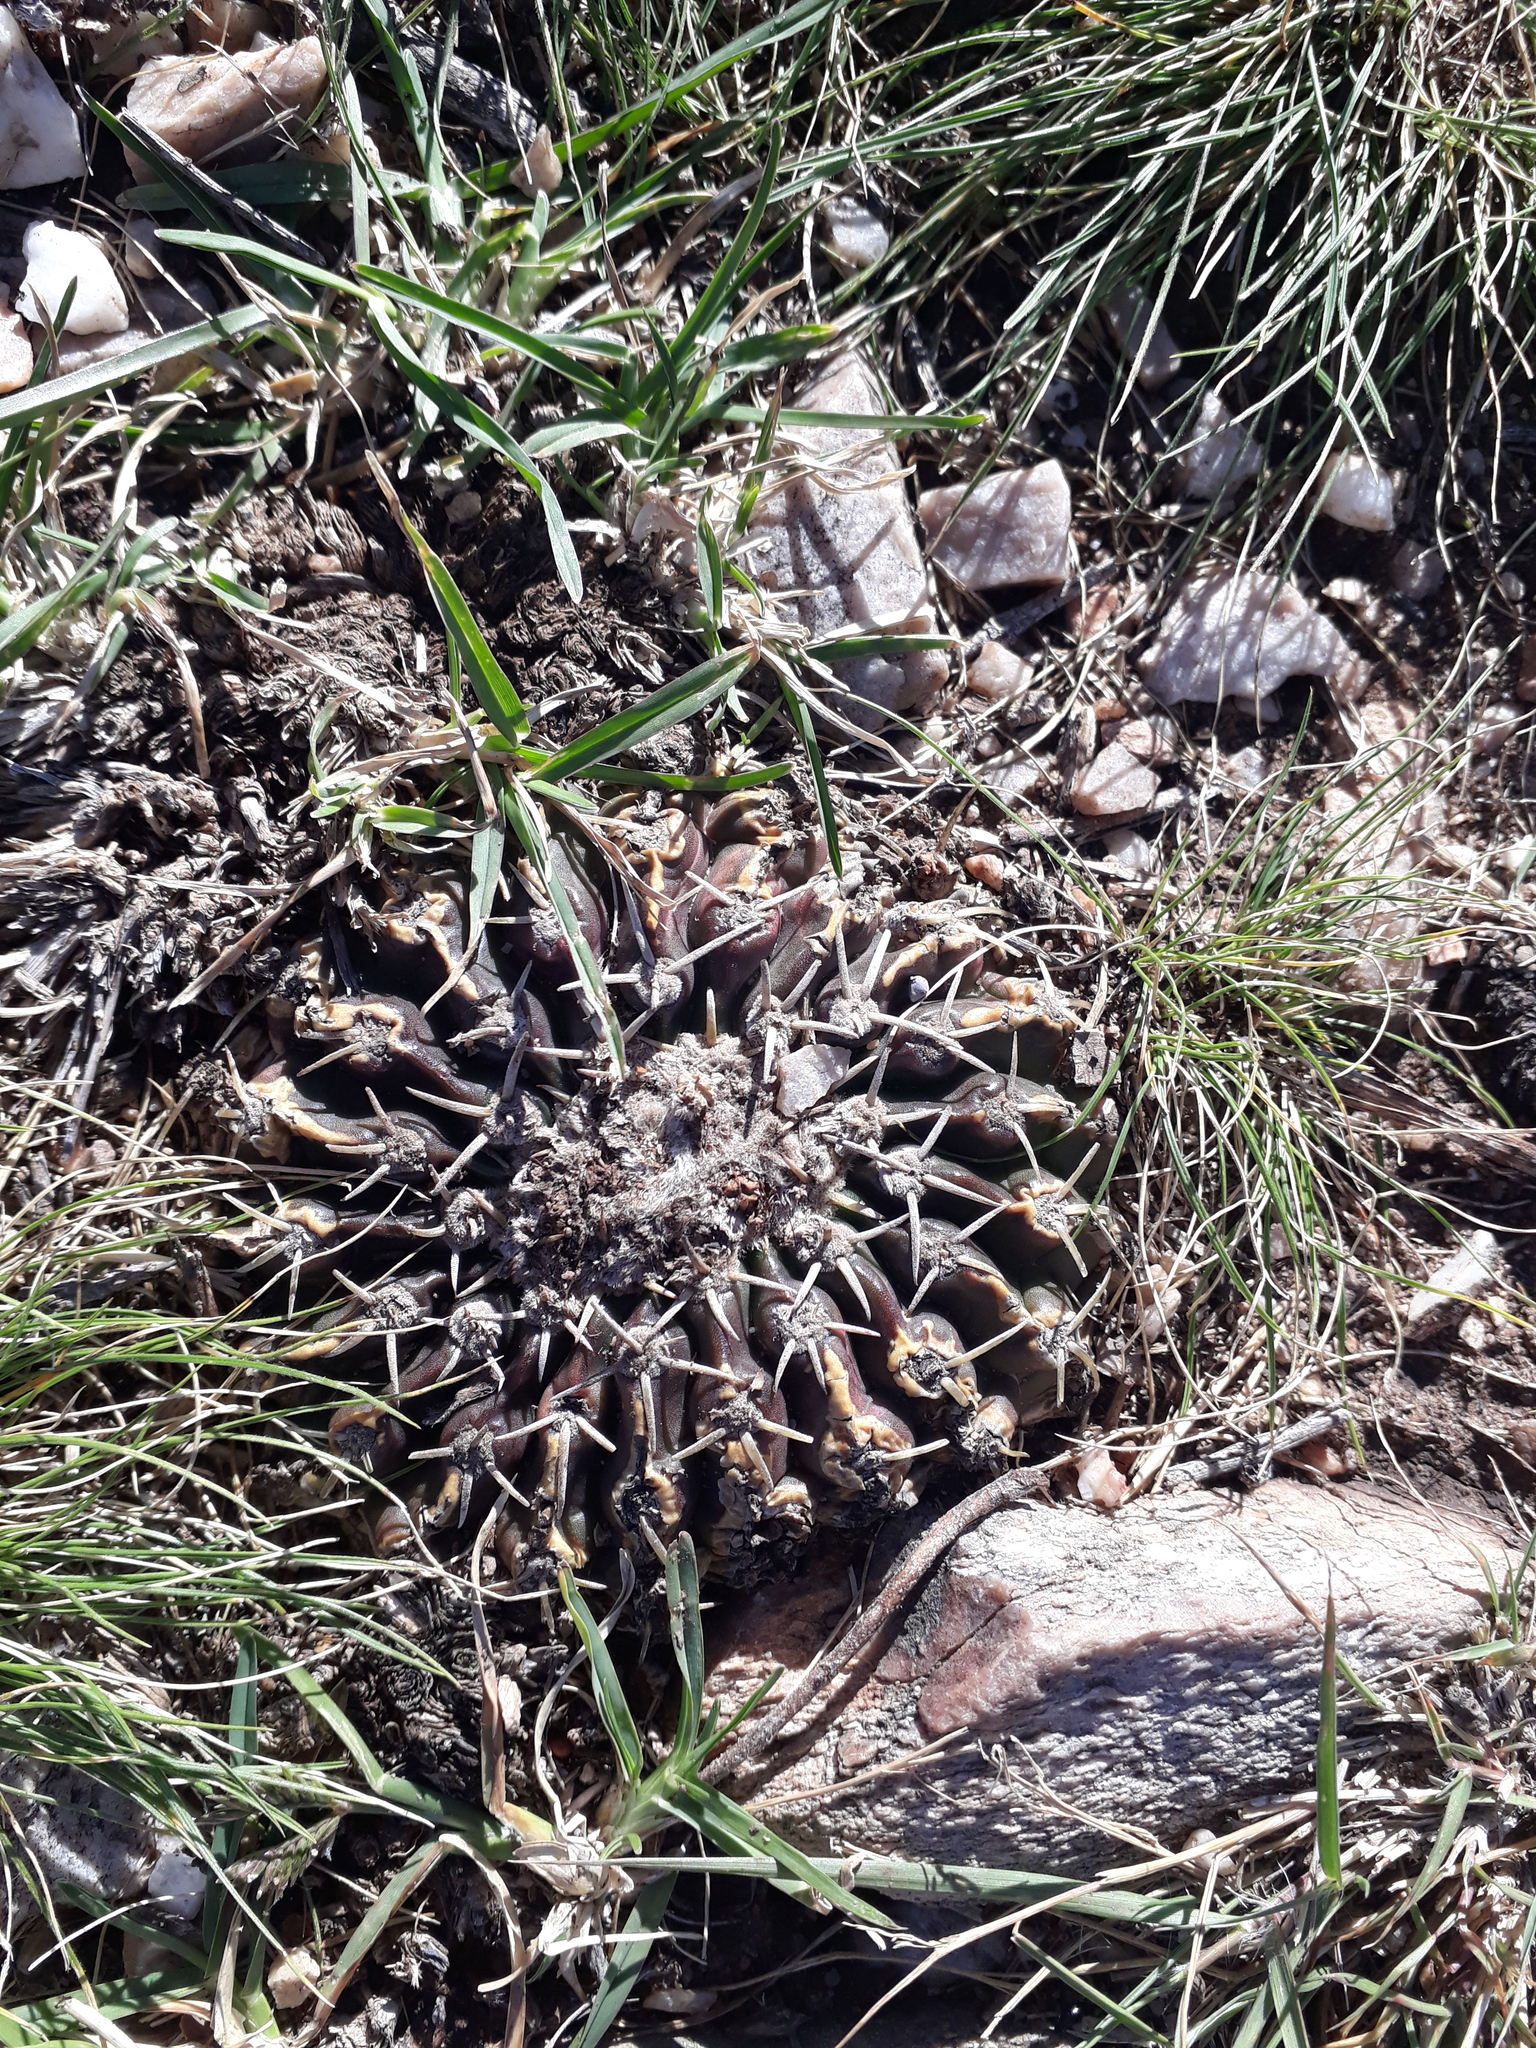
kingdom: Plantae
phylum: Tracheophyta
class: Magnoliopsida
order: Caryophyllales
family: Cactaceae
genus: Parodia
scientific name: Parodia erinacea
